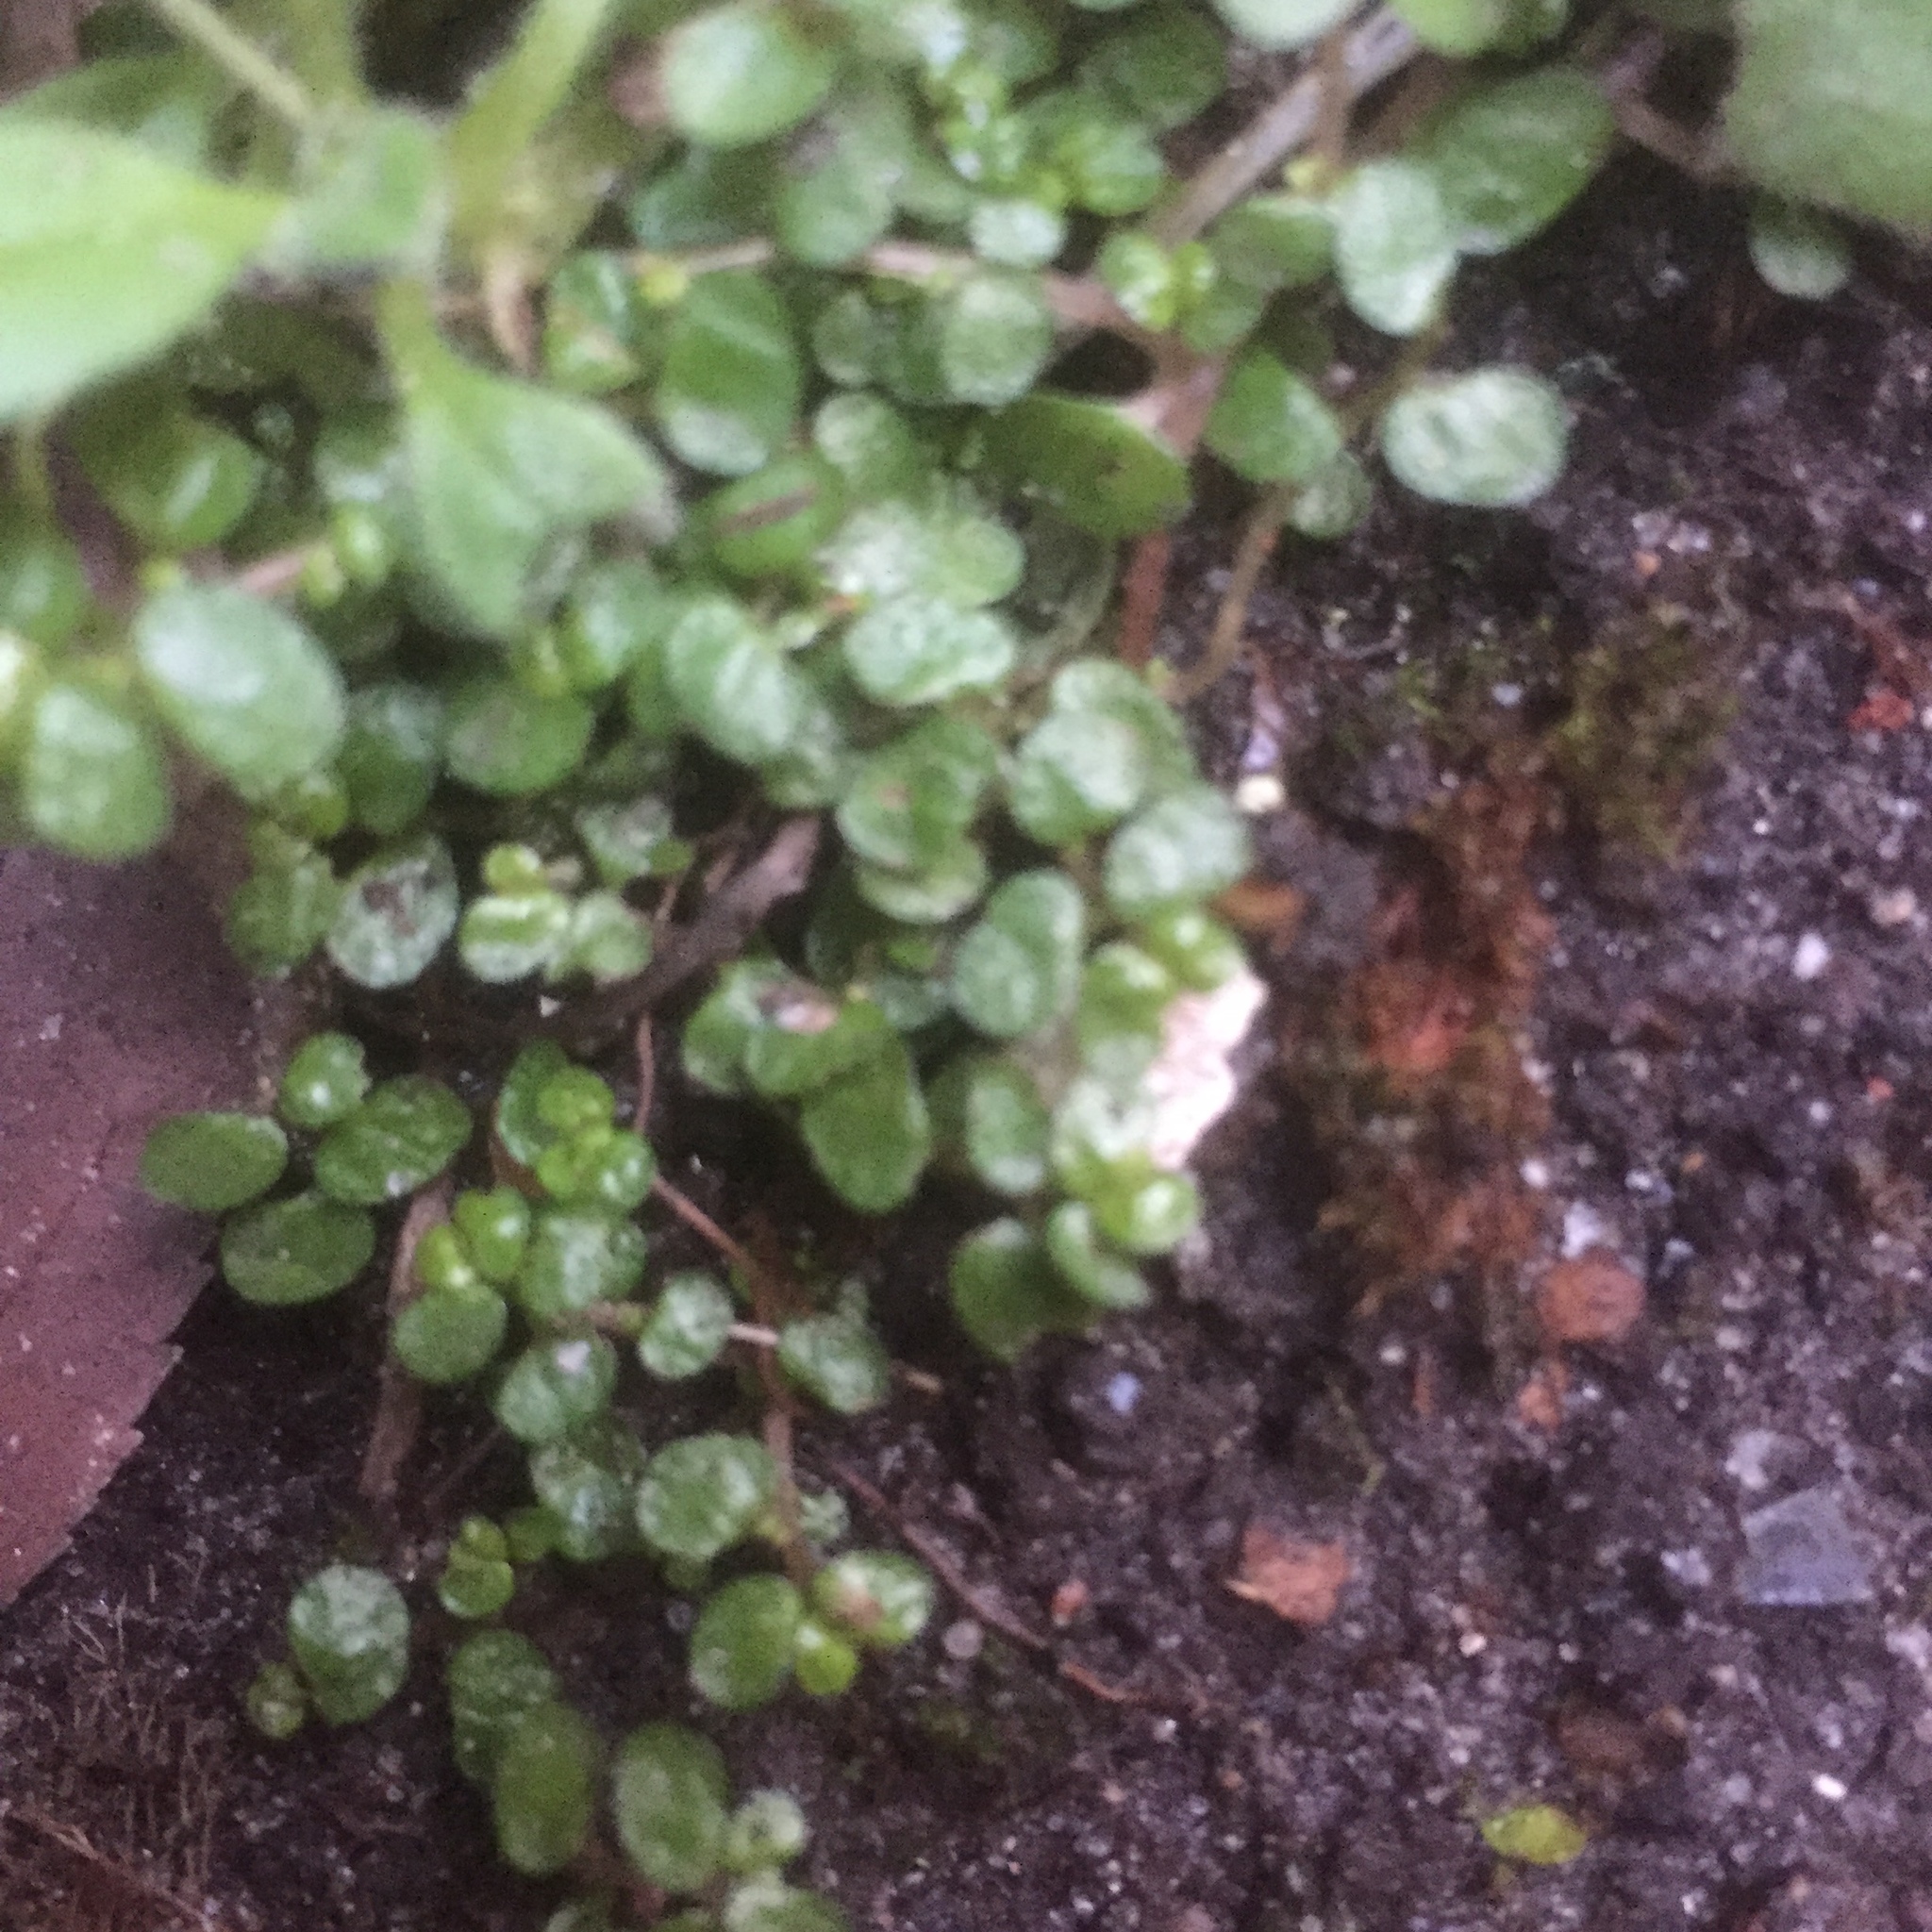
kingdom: Plantae
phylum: Tracheophyta
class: Magnoliopsida
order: Rosales
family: Urticaceae
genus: Soleirolia
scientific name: Soleirolia soleirolii
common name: Mind-your-own-business
